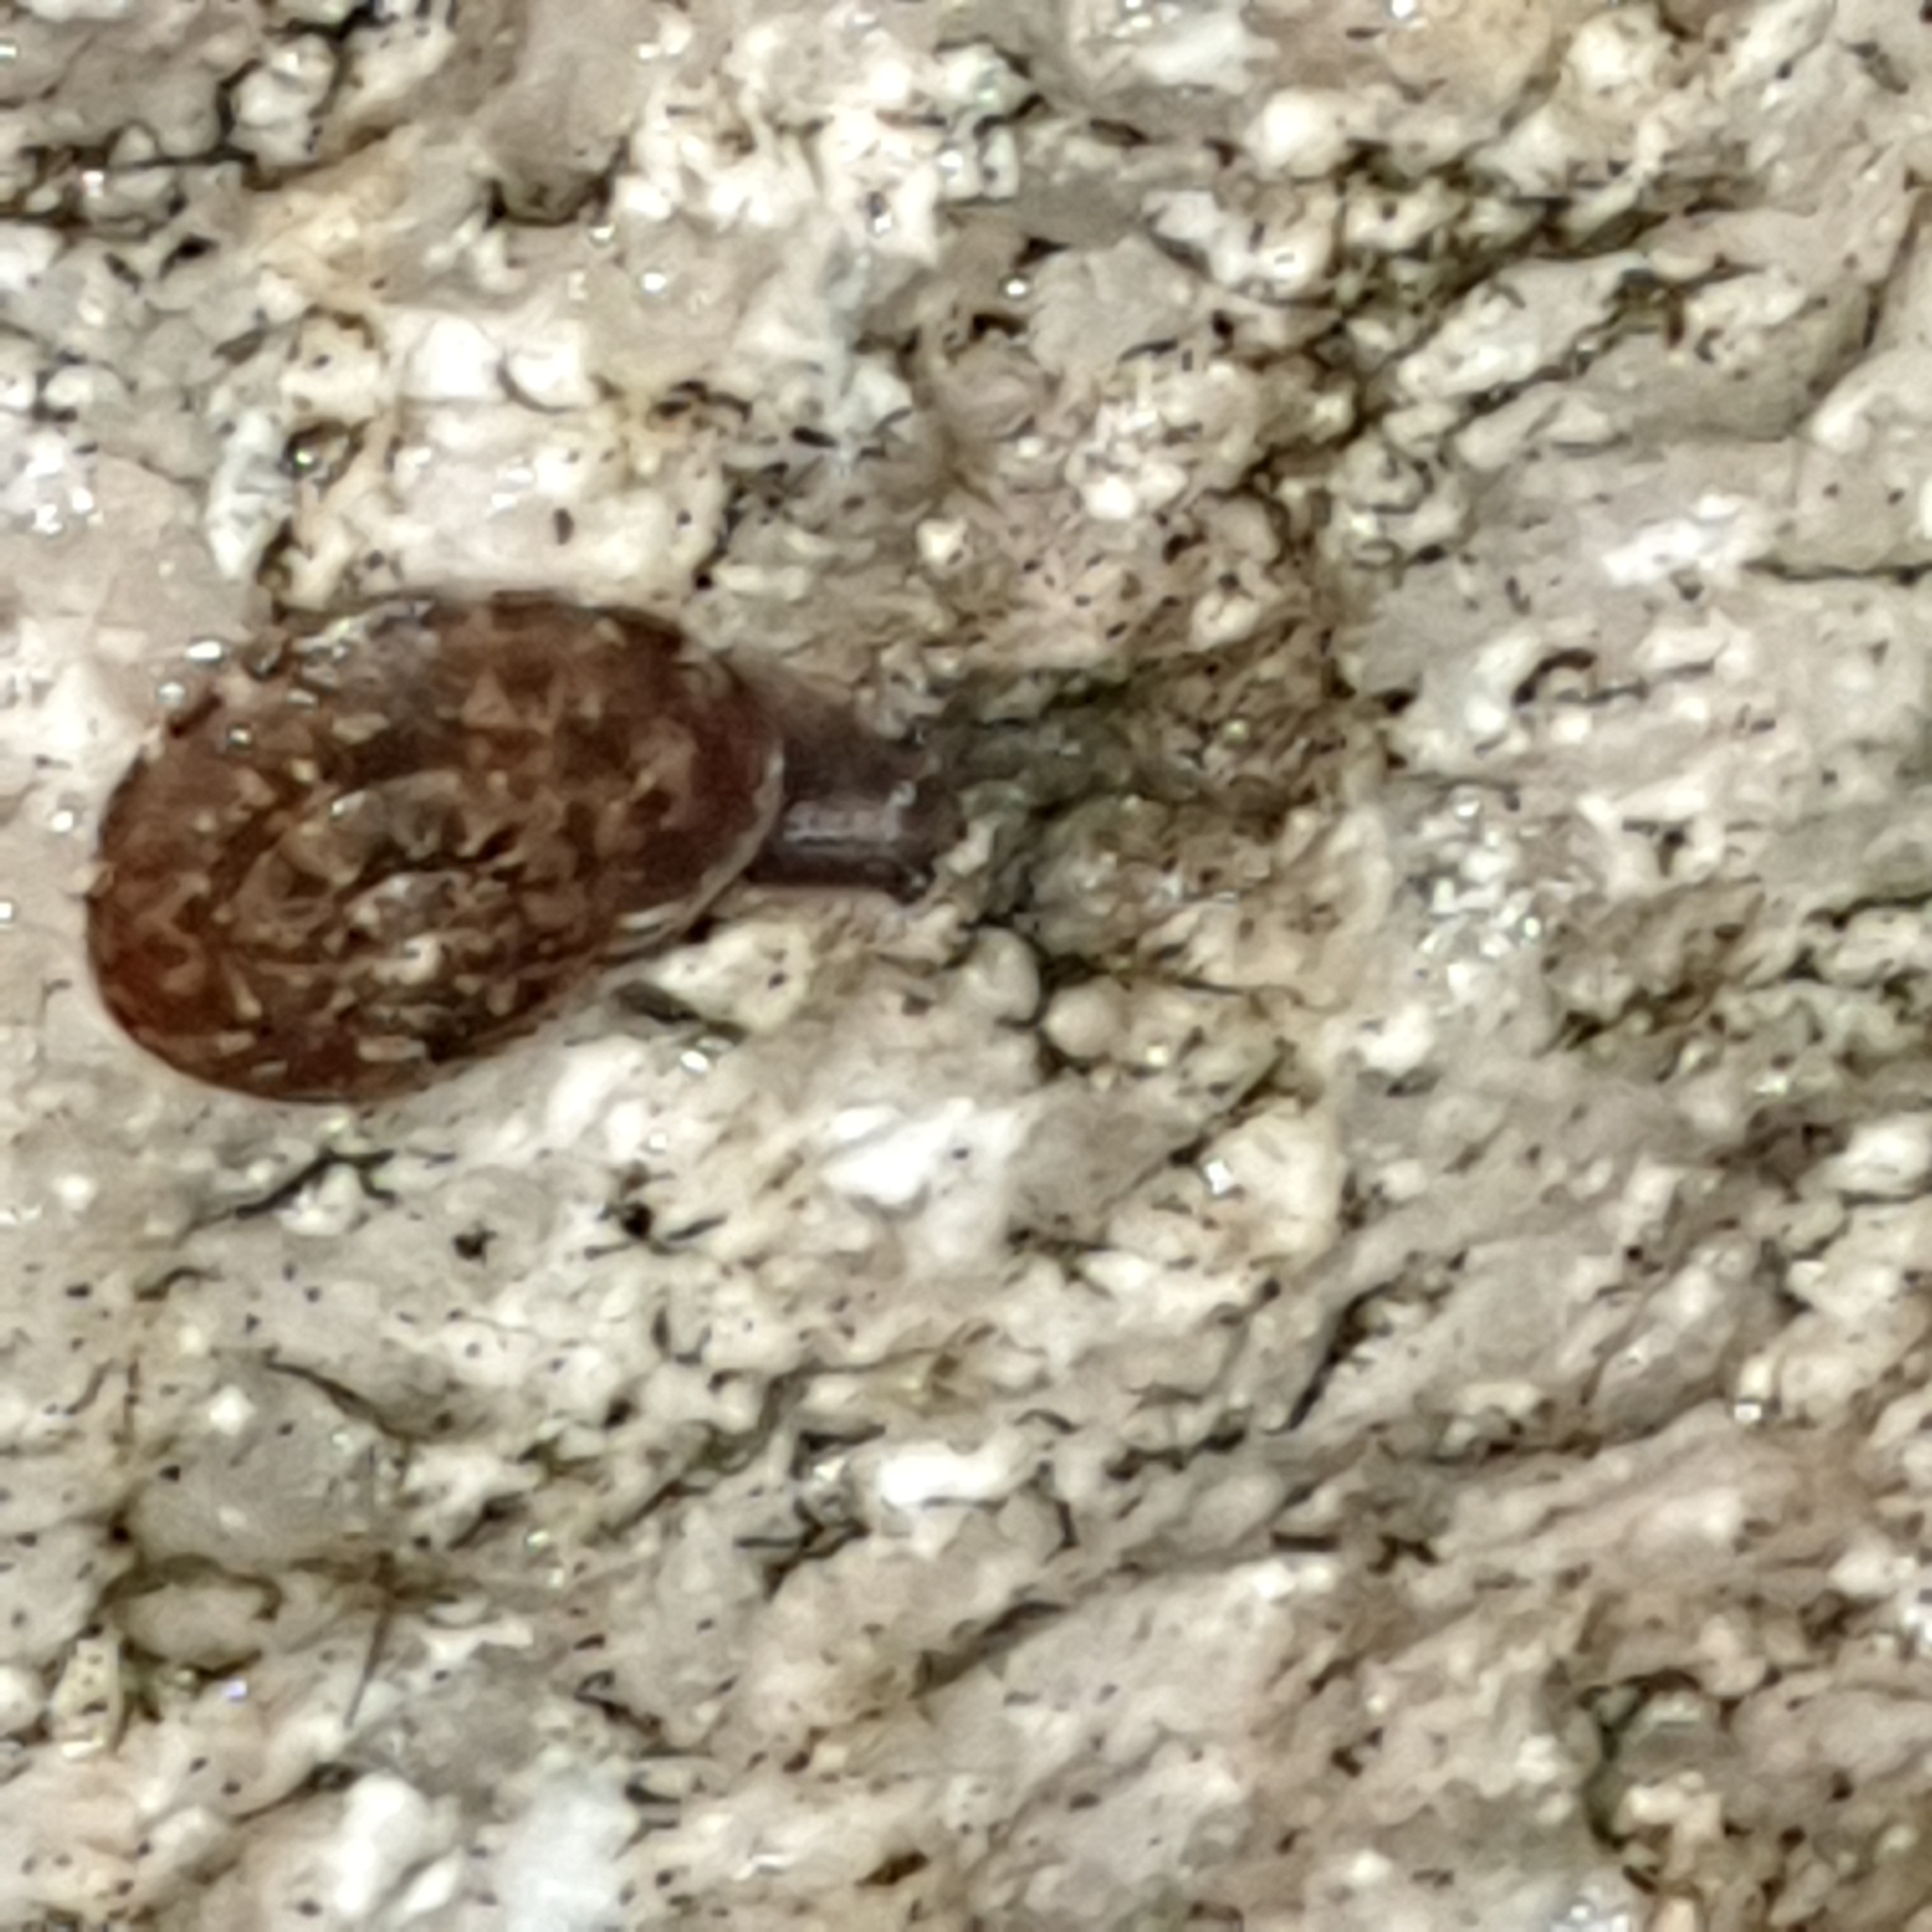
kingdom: Animalia
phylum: Mollusca
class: Gastropoda
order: Stylommatophora
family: Helicidae
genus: Helicigona
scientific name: Helicigona lapicida
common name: Lapidary snail
